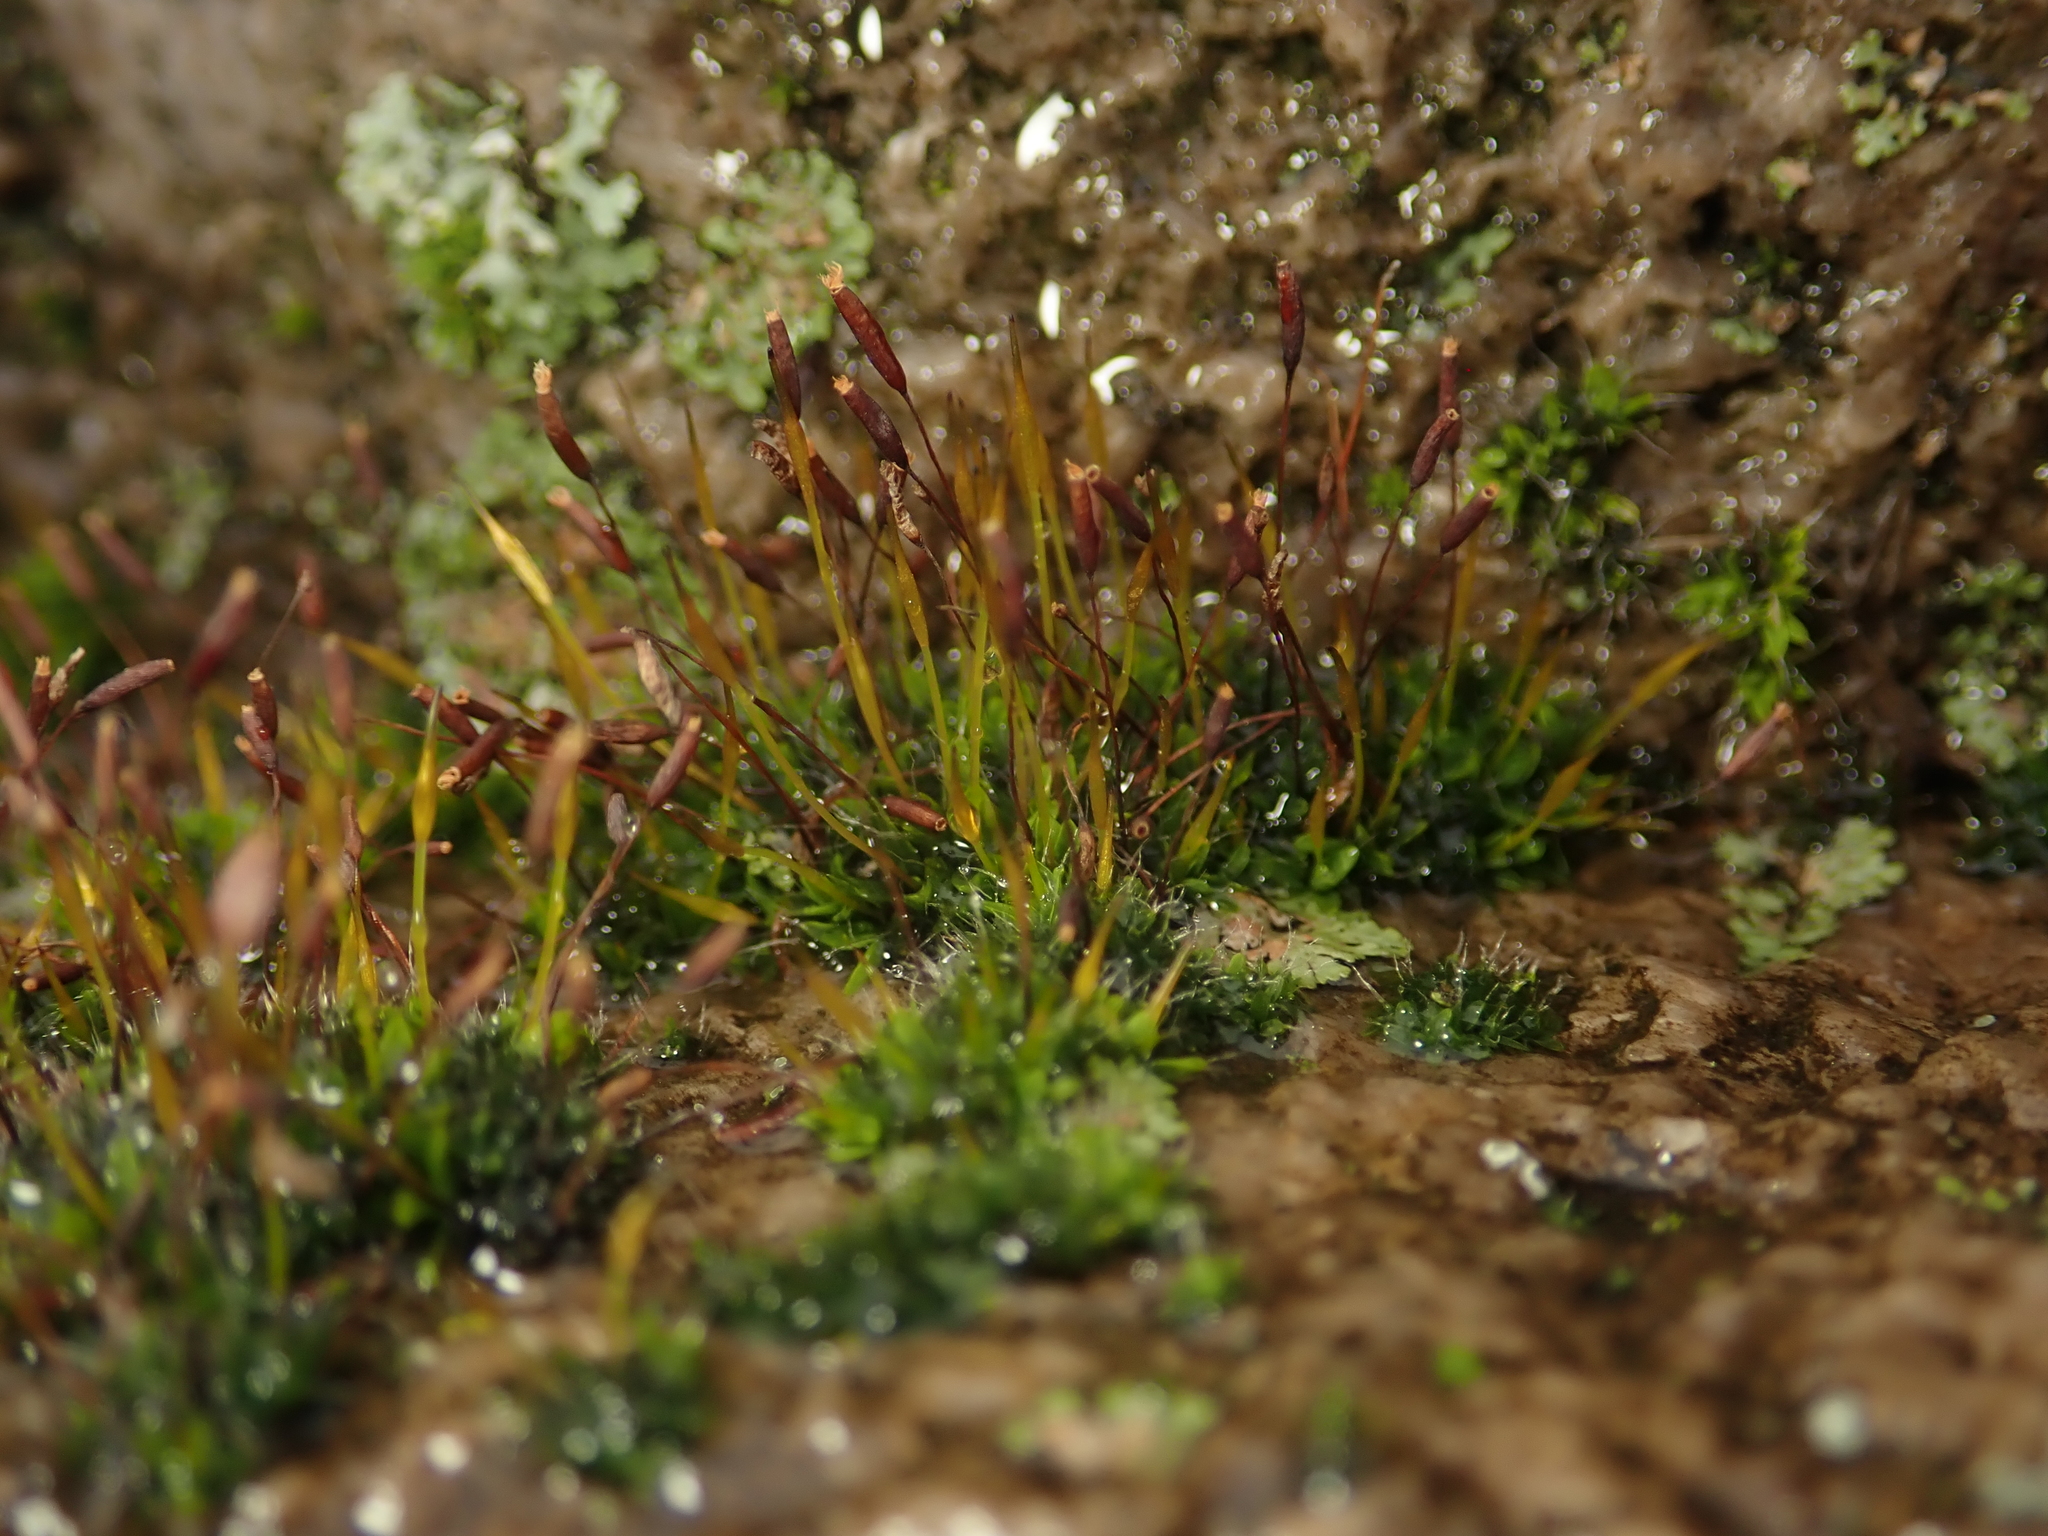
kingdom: Plantae
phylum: Bryophyta
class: Bryopsida
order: Pottiales
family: Pottiaceae
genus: Tortula
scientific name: Tortula muralis
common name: Wall screw-moss
